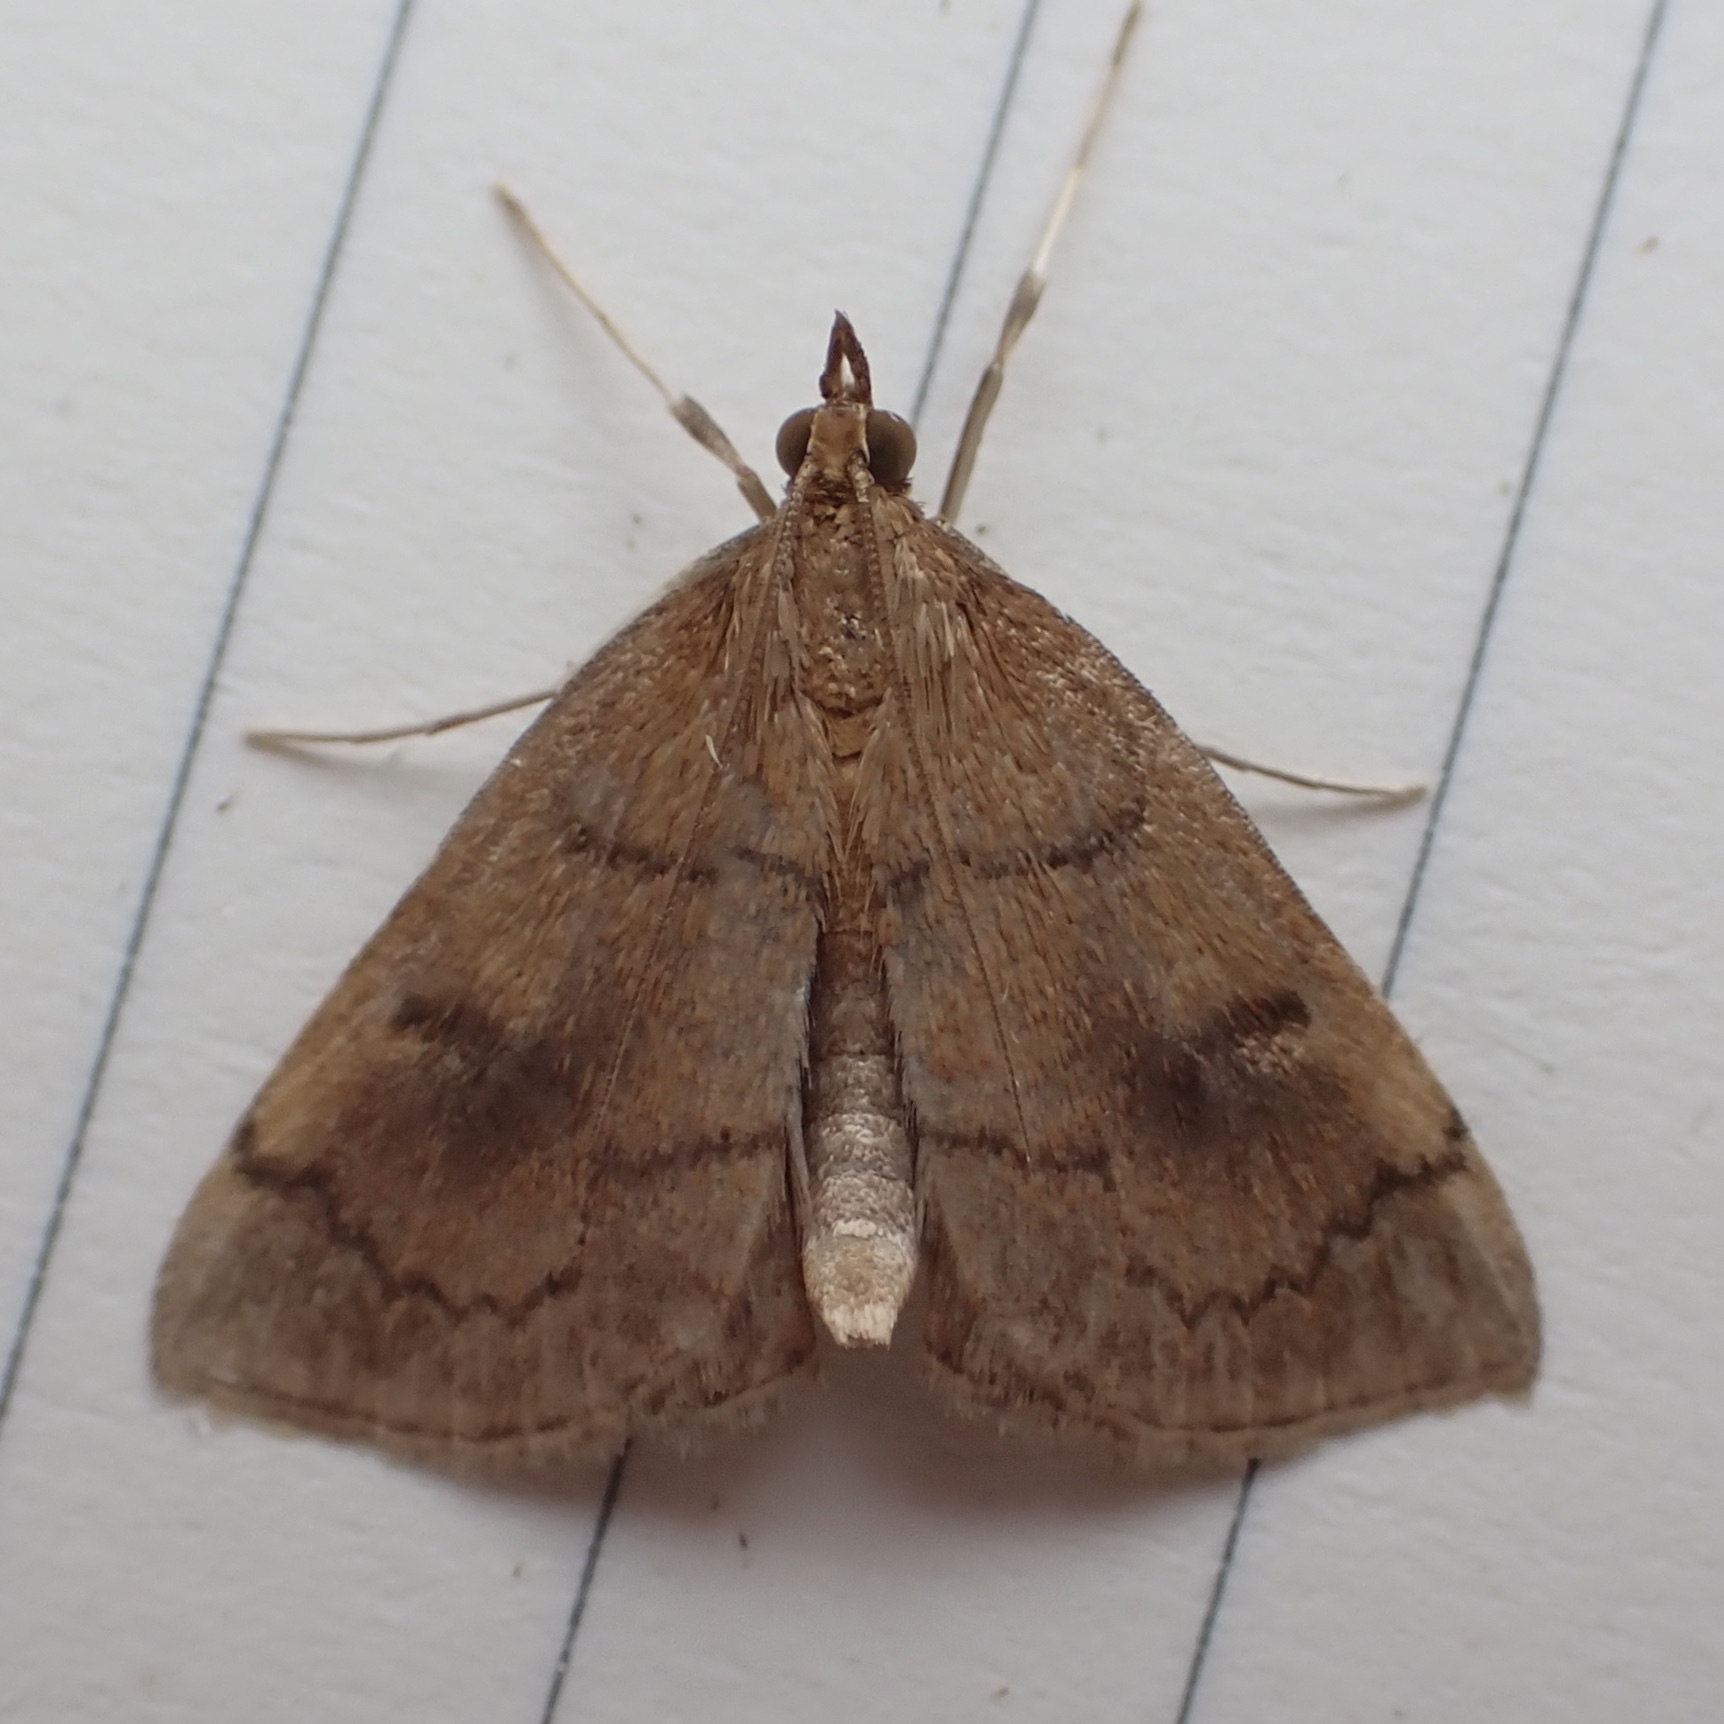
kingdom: Animalia
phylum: Arthropoda
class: Insecta
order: Lepidoptera
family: Crambidae
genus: Fumibotys
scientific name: Fumibotys fumalis
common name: Mint root borer moth
